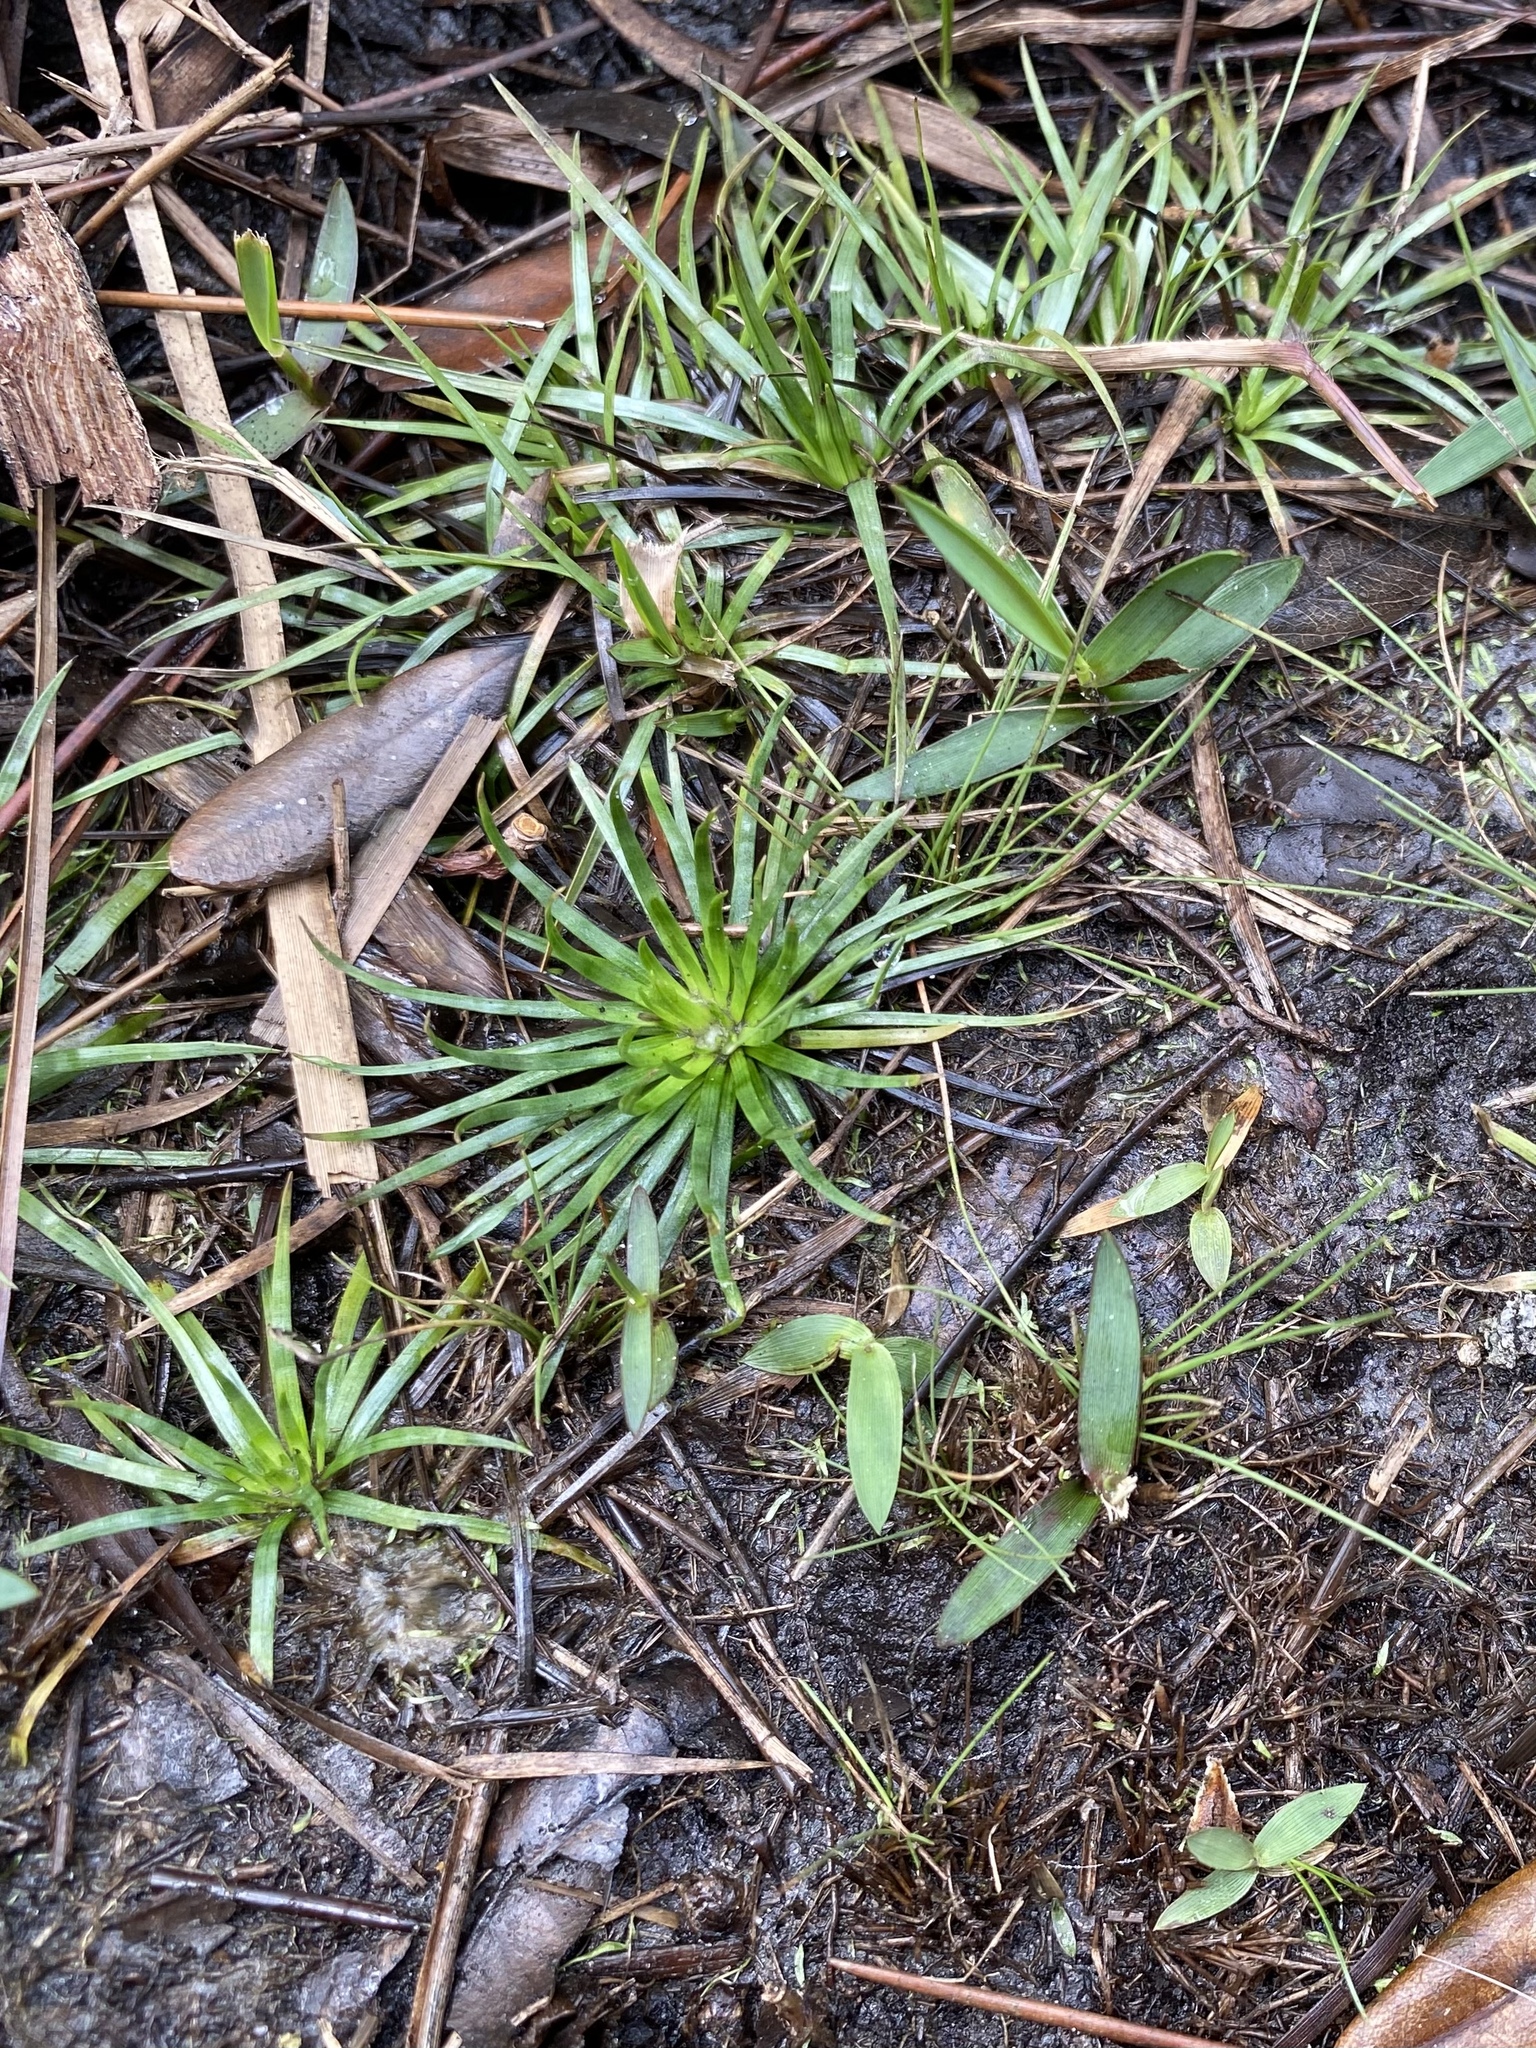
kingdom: Plantae
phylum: Tracheophyta
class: Liliopsida
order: Poales
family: Eriocaulaceae
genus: Syngonanthus
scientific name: Syngonanthus flavidulus
